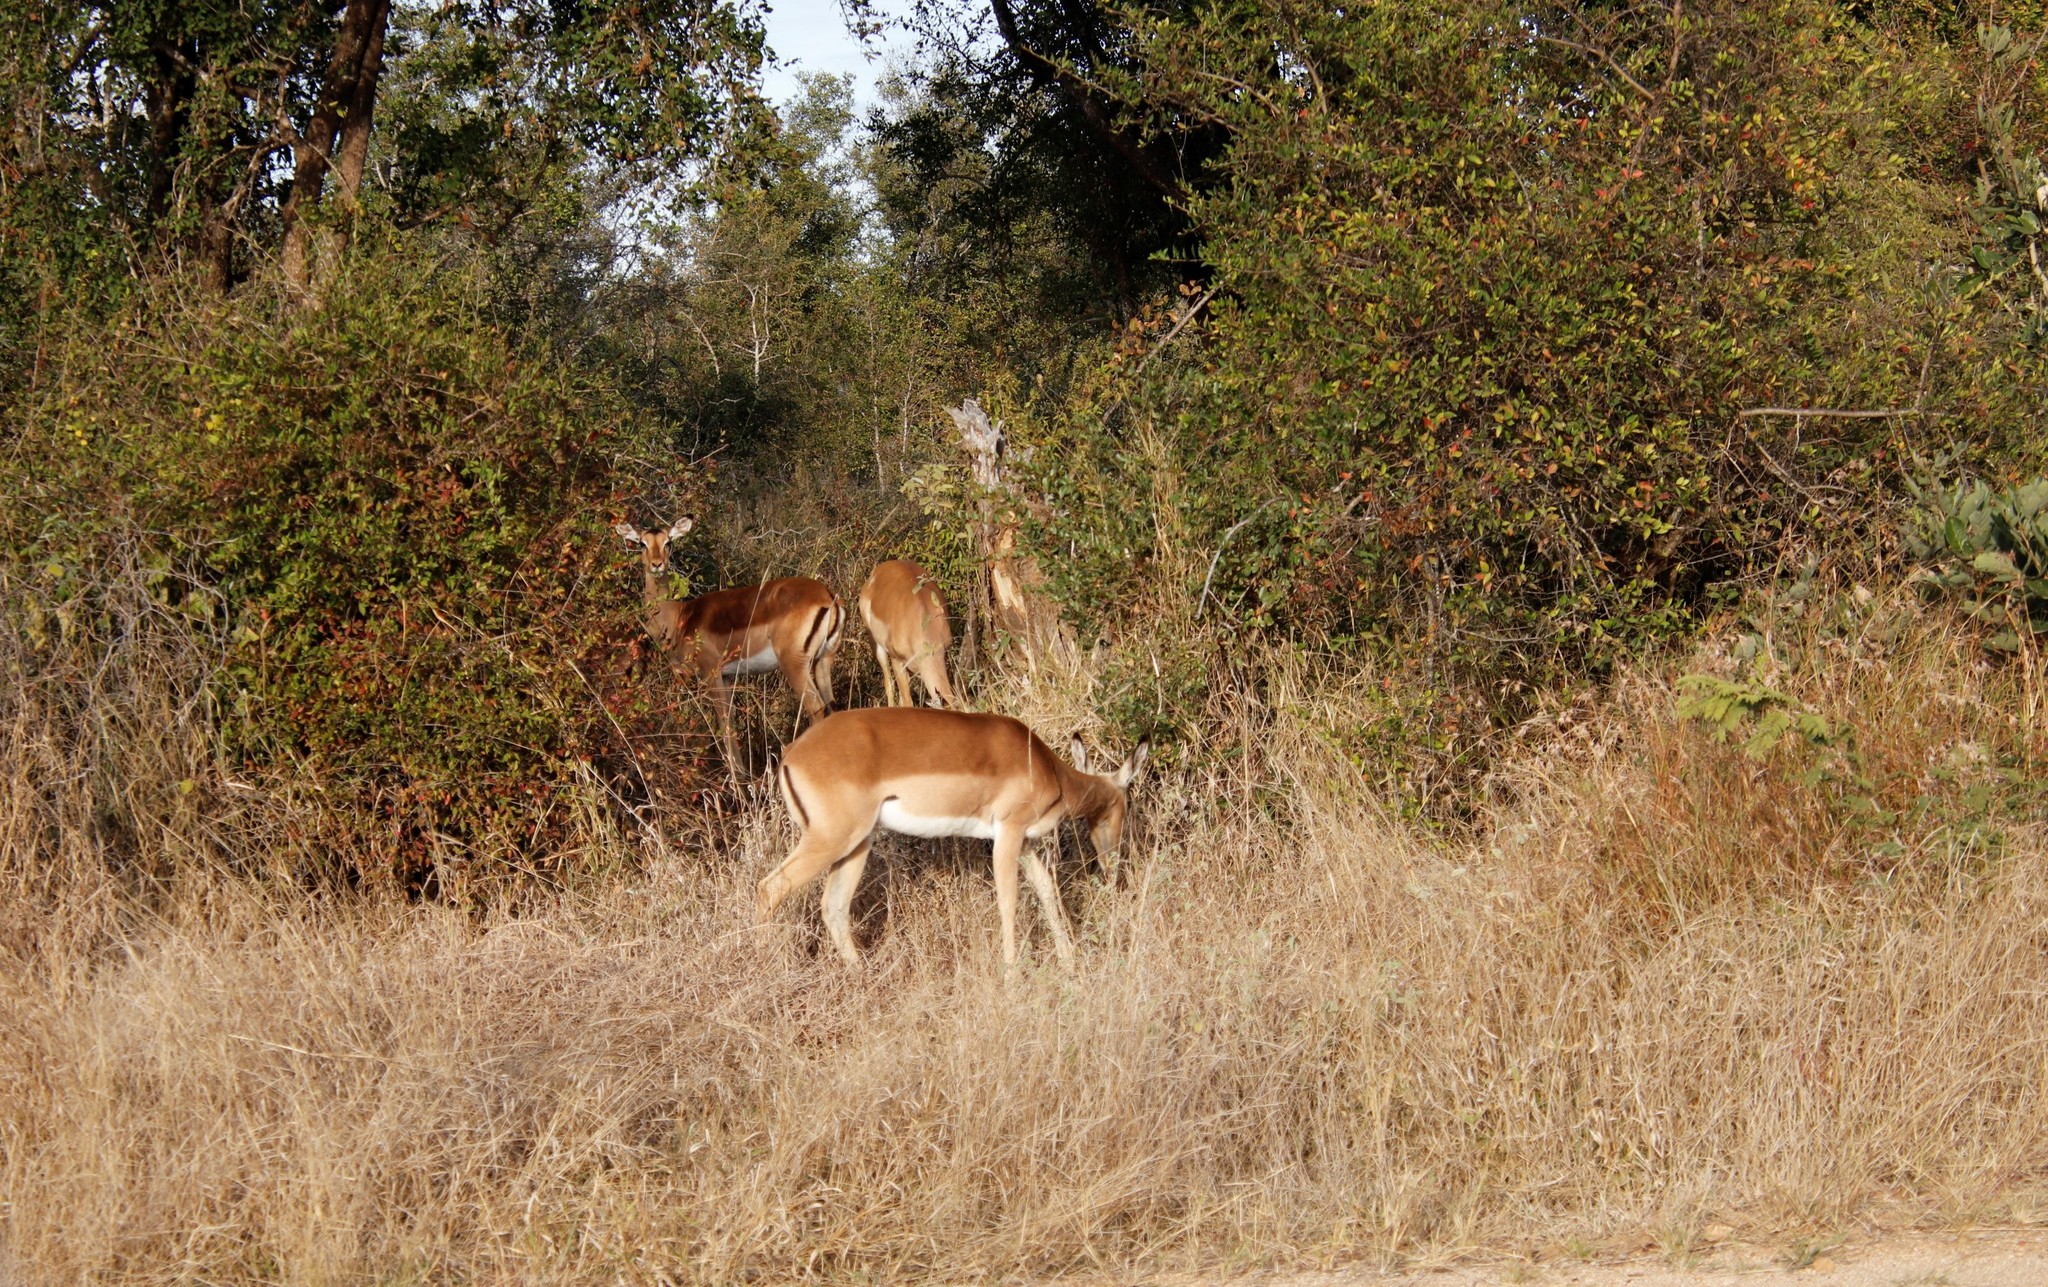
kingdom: Animalia
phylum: Chordata
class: Mammalia
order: Artiodactyla
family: Bovidae
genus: Aepyceros
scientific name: Aepyceros melampus
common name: Impala
